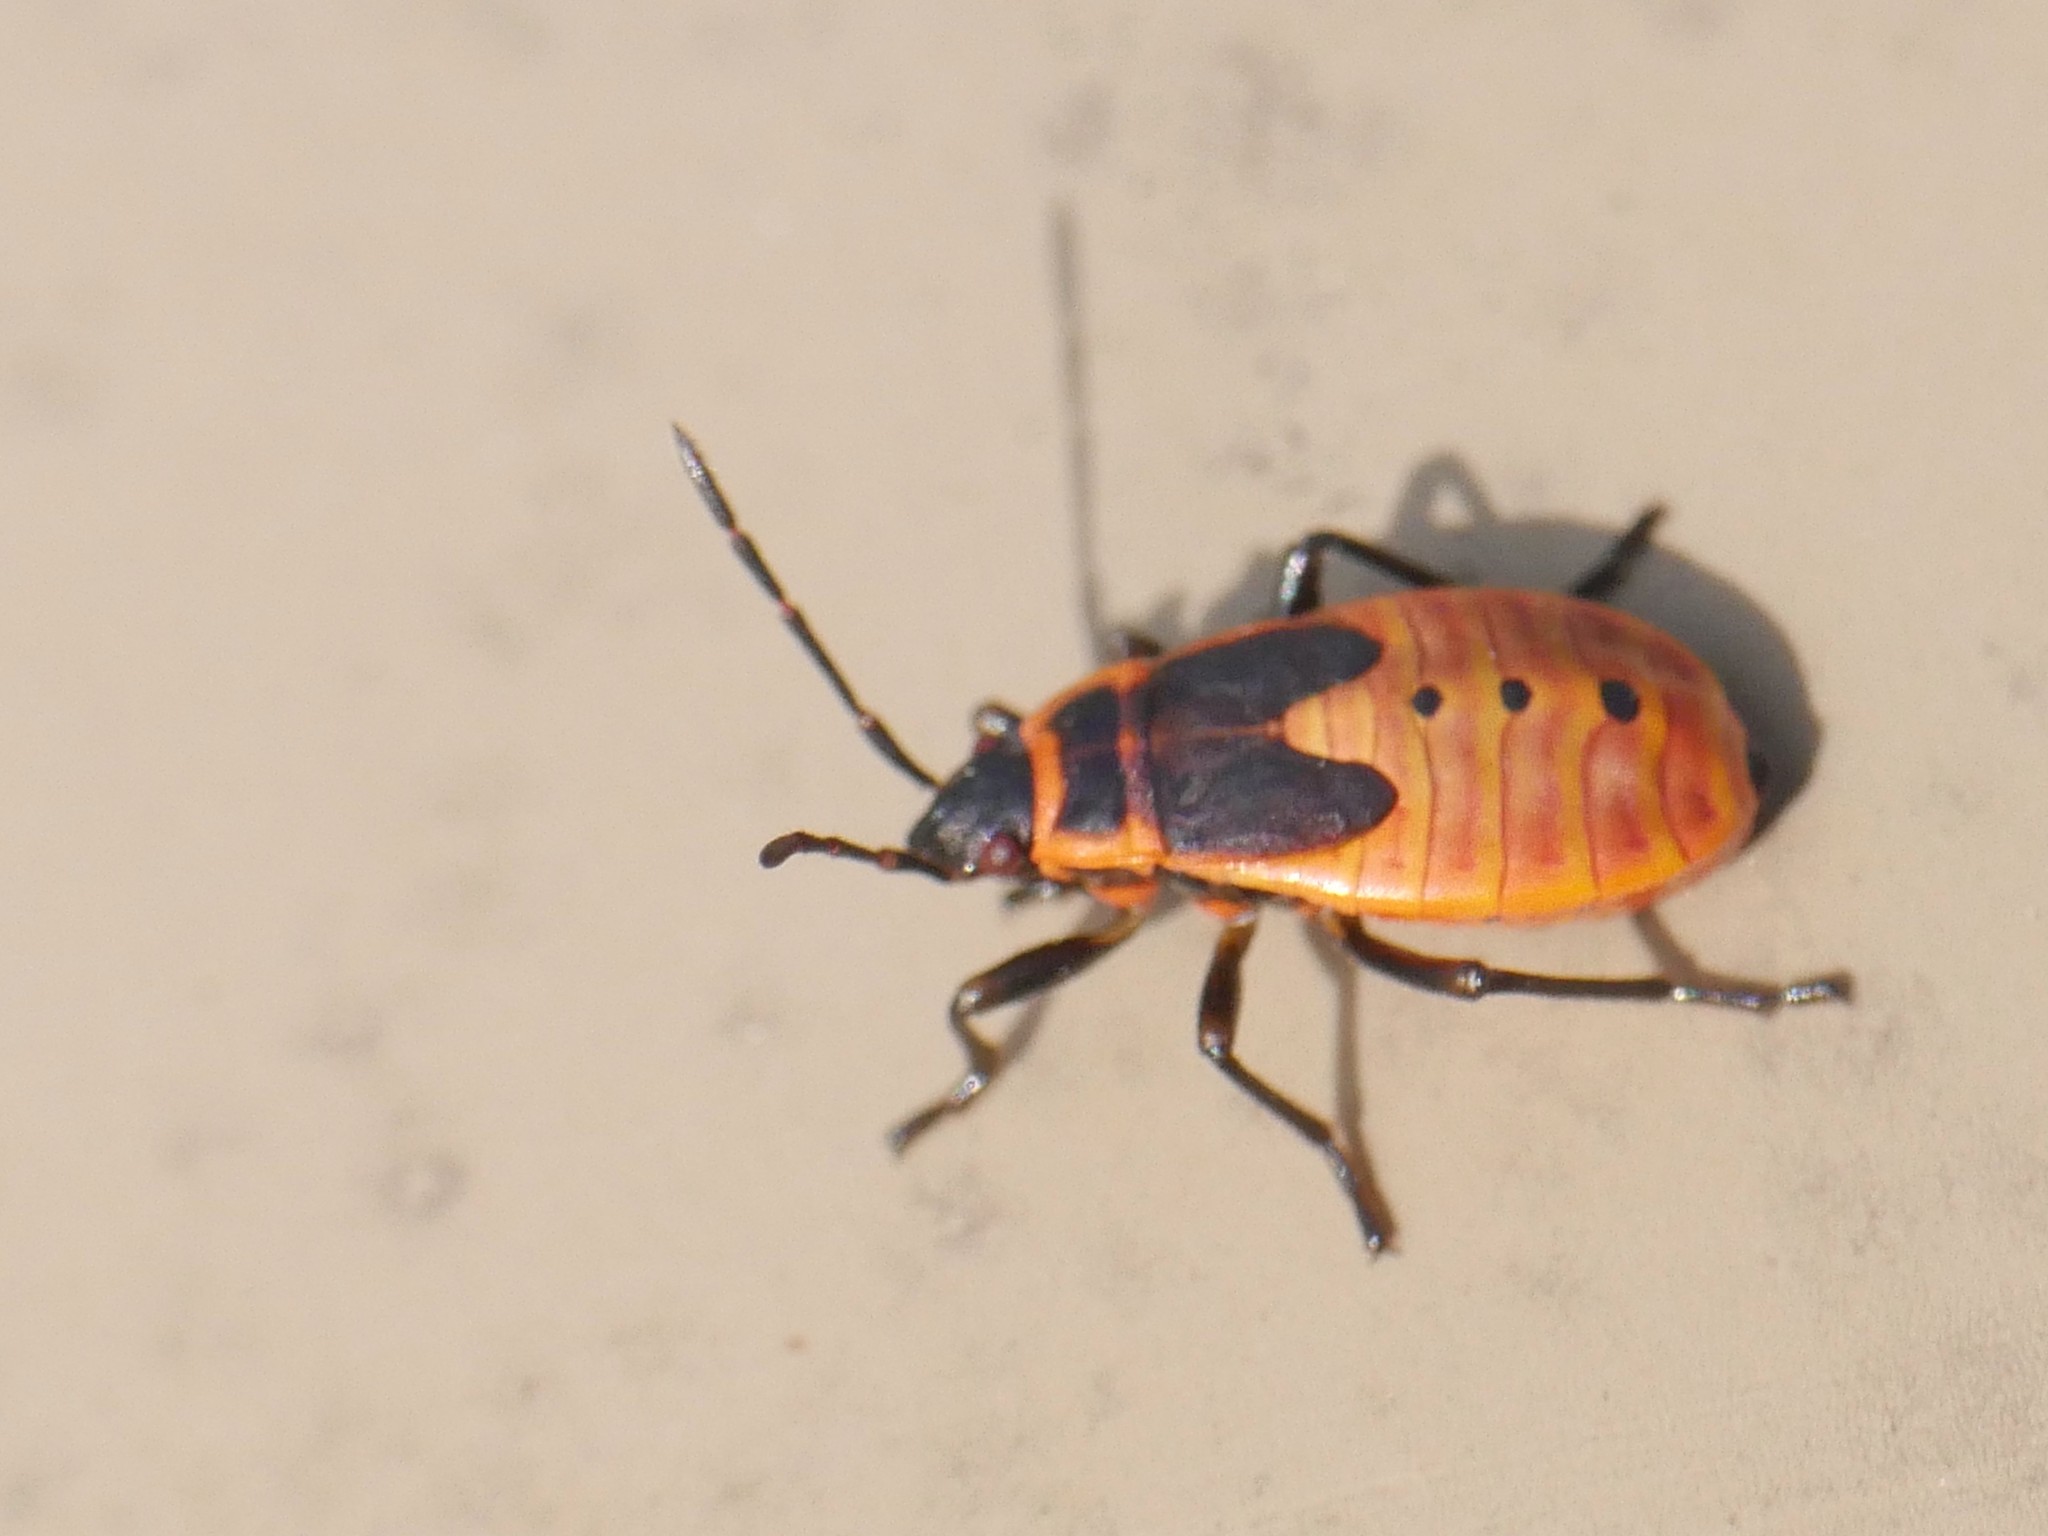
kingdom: Animalia
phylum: Arthropoda
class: Insecta
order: Hemiptera
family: Pyrrhocoridae
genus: Pyrrhocoris
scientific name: Pyrrhocoris apterus
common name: Firebug
